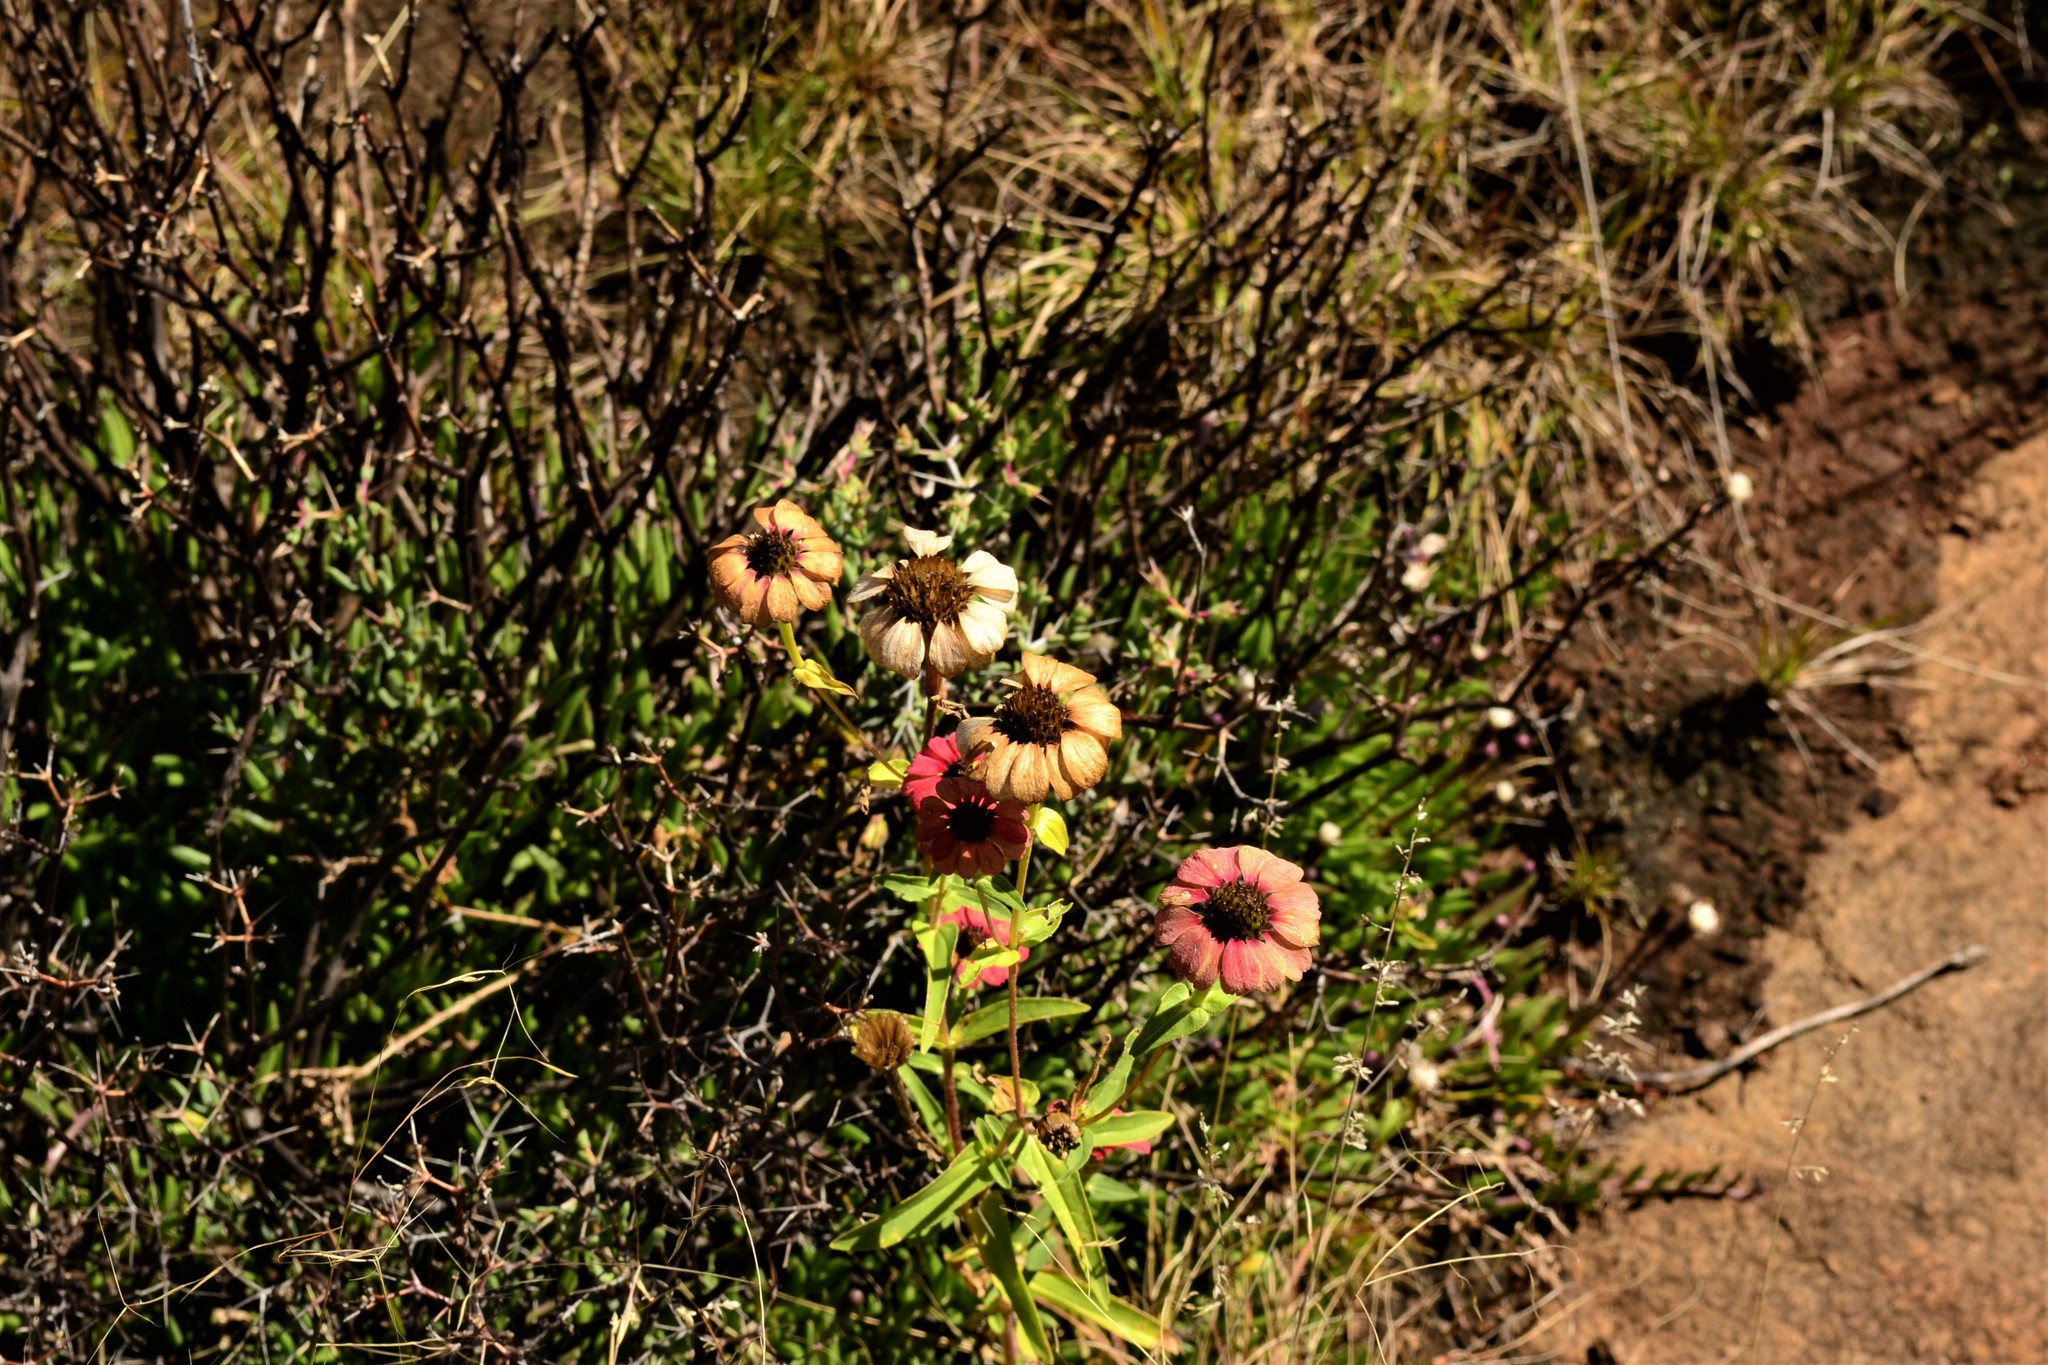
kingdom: Plantae
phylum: Tracheophyta
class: Magnoliopsida
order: Asterales
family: Asteraceae
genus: Zinnia
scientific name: Zinnia peruviana
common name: Peruvian zinnia
